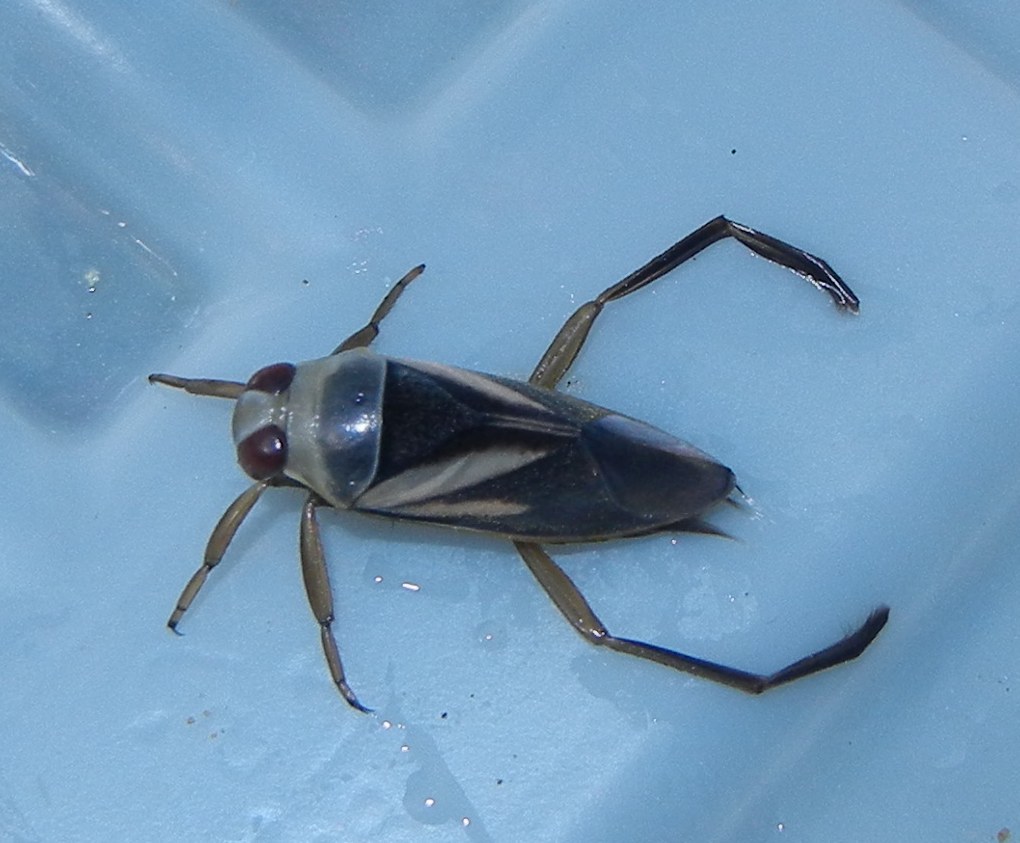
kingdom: Animalia
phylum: Arthropoda
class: Insecta
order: Hemiptera
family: Notonectidae
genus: Notonecta
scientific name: Notonecta obliqua
